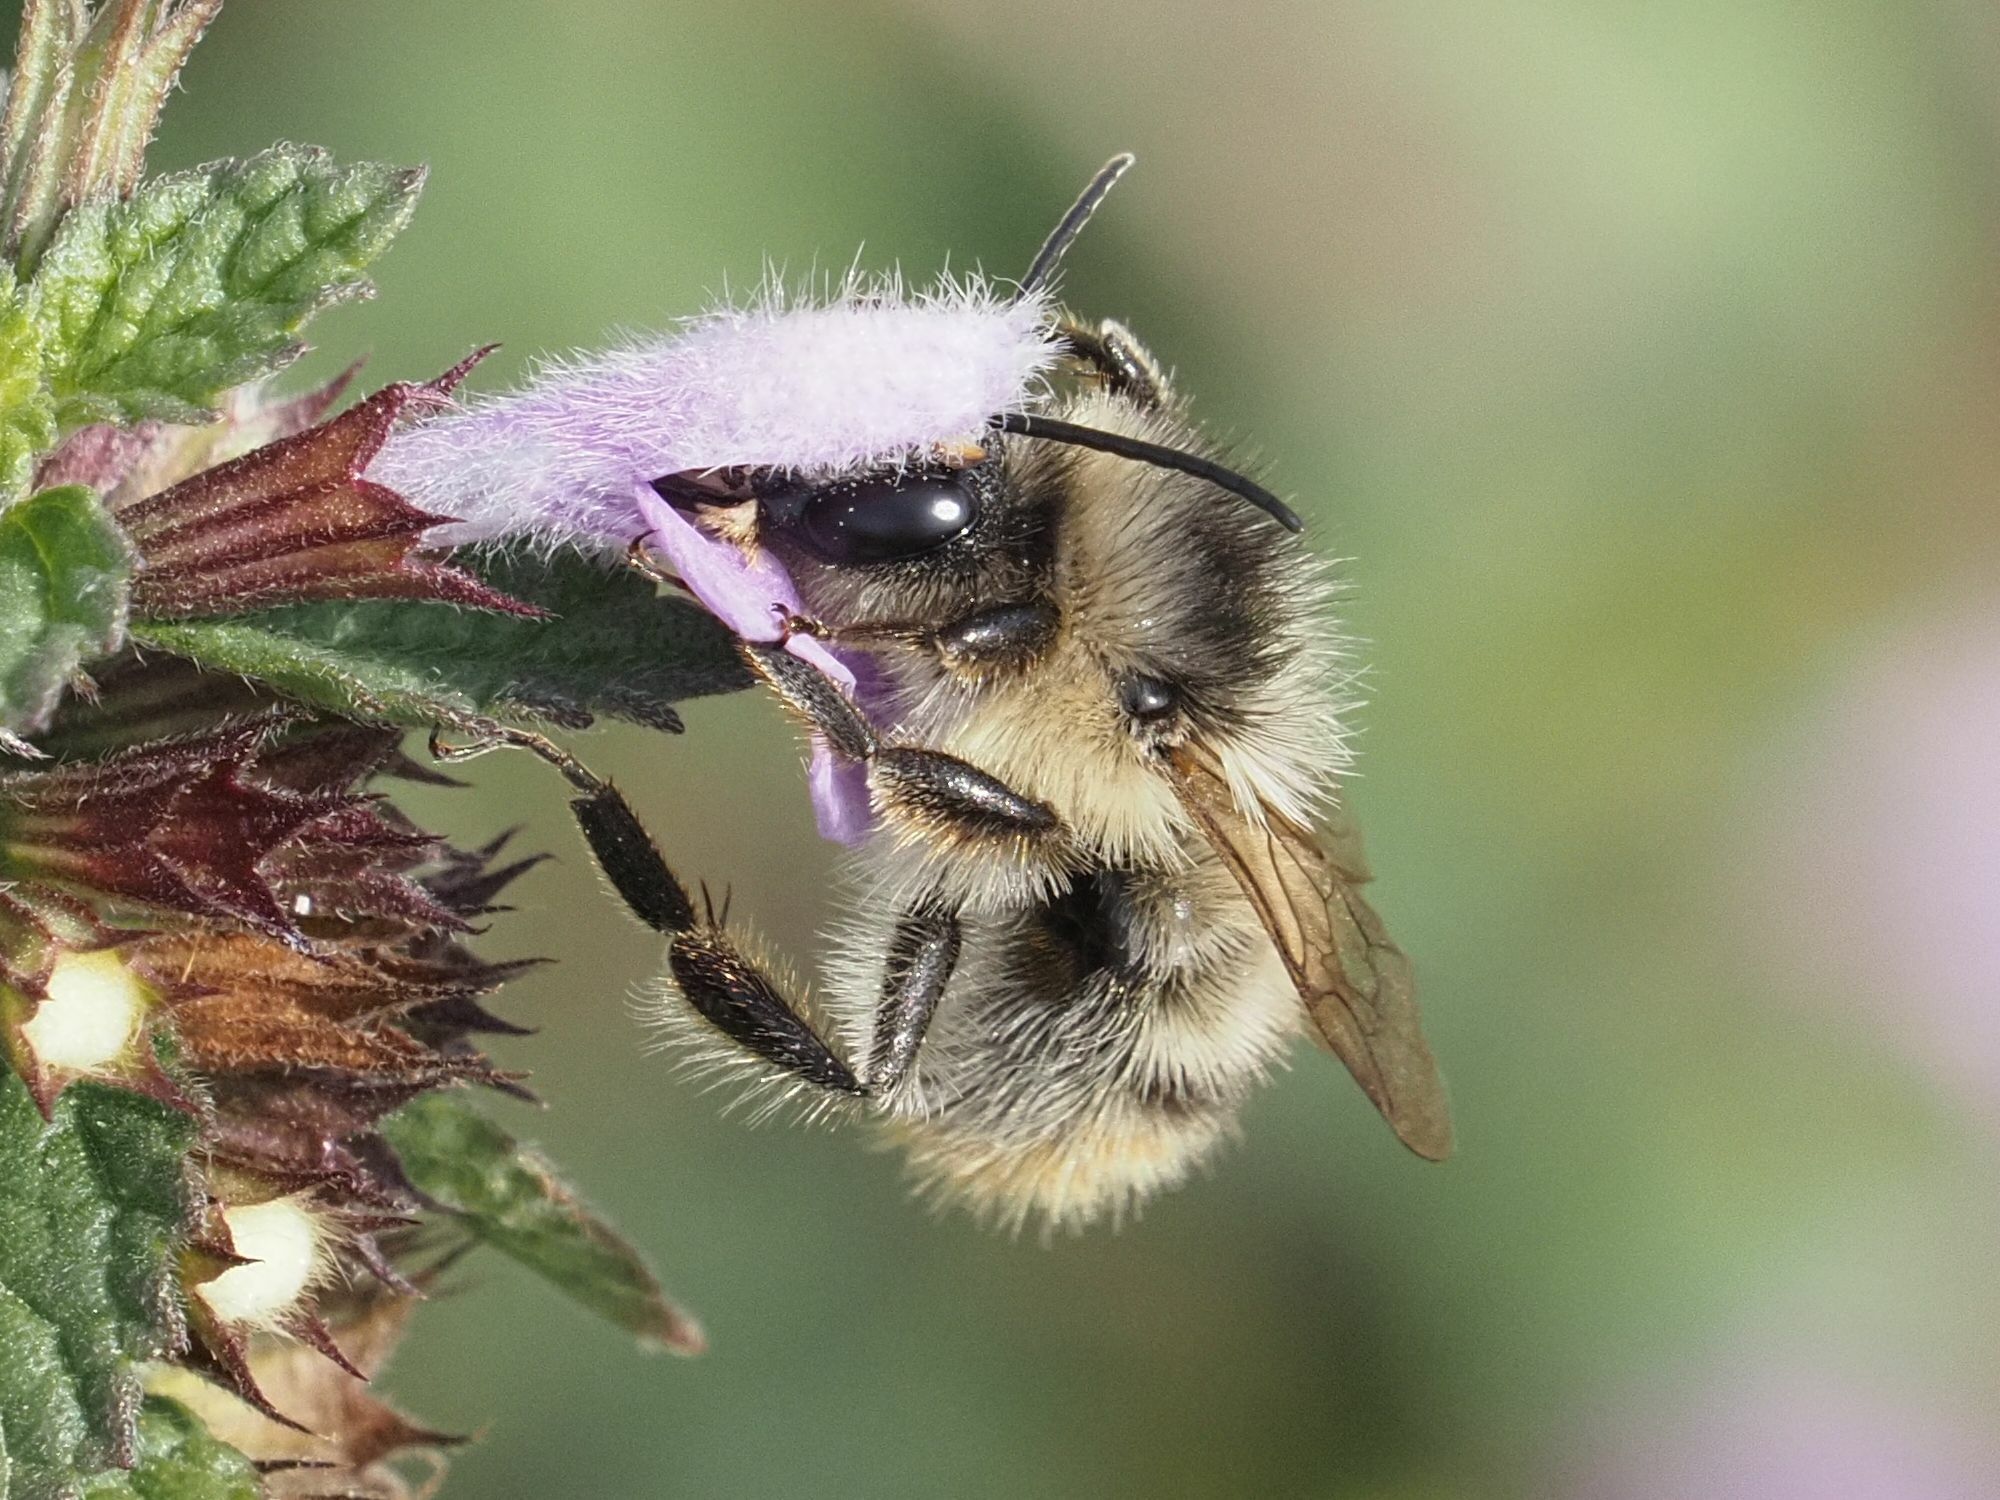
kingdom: Animalia
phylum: Arthropoda
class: Insecta
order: Hymenoptera
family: Apidae
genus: Bombus
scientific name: Bombus sylvarum
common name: Shrill carder bee
